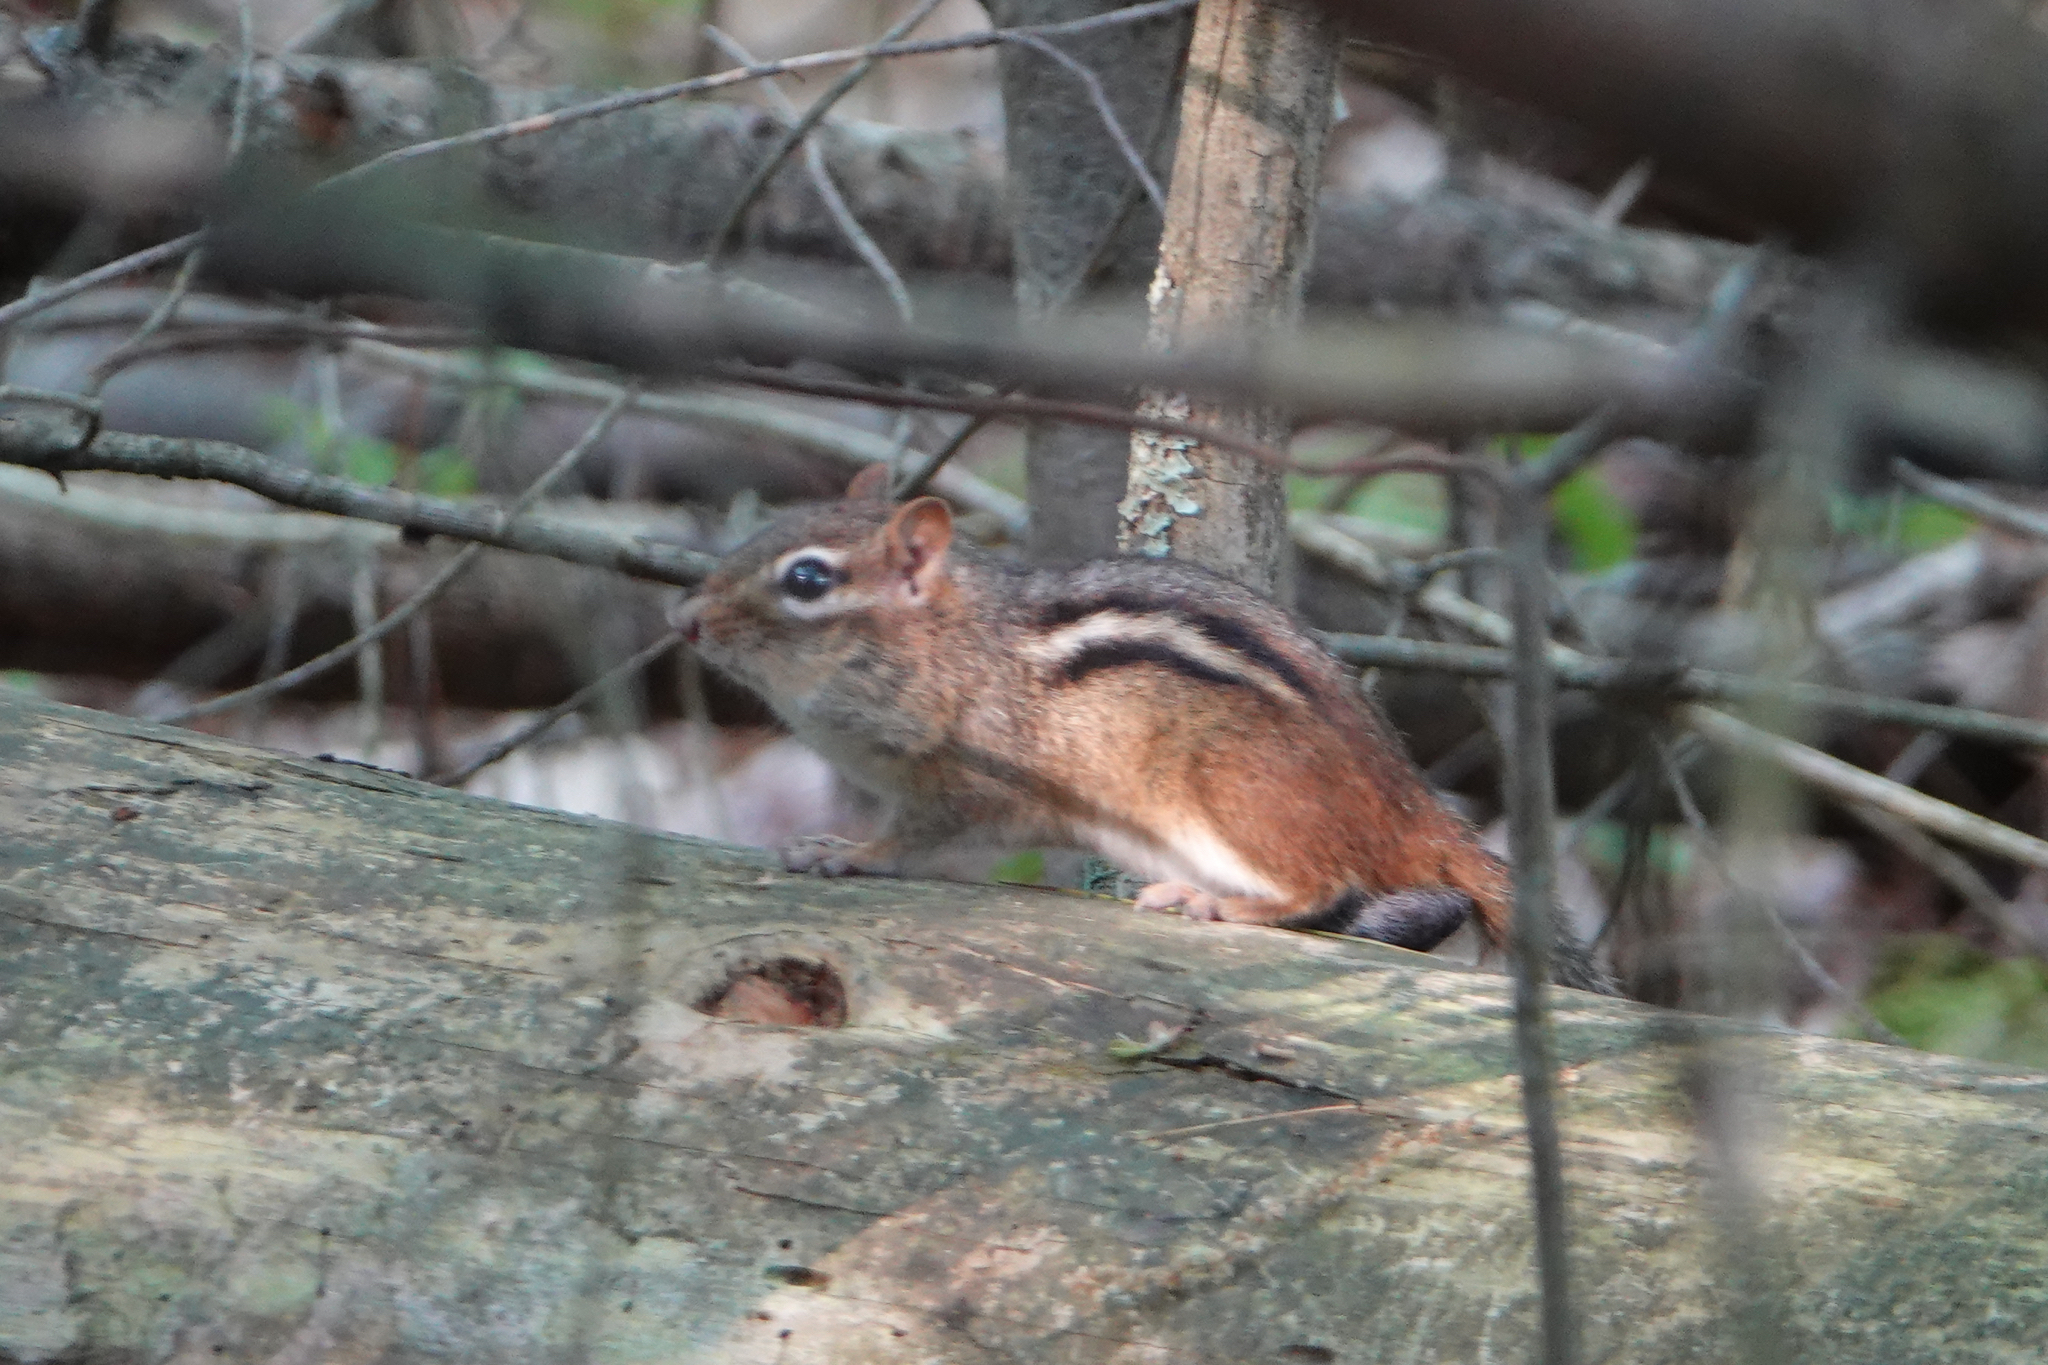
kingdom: Animalia
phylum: Chordata
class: Mammalia
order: Rodentia
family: Sciuridae
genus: Tamias
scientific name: Tamias striatus
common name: Eastern chipmunk
